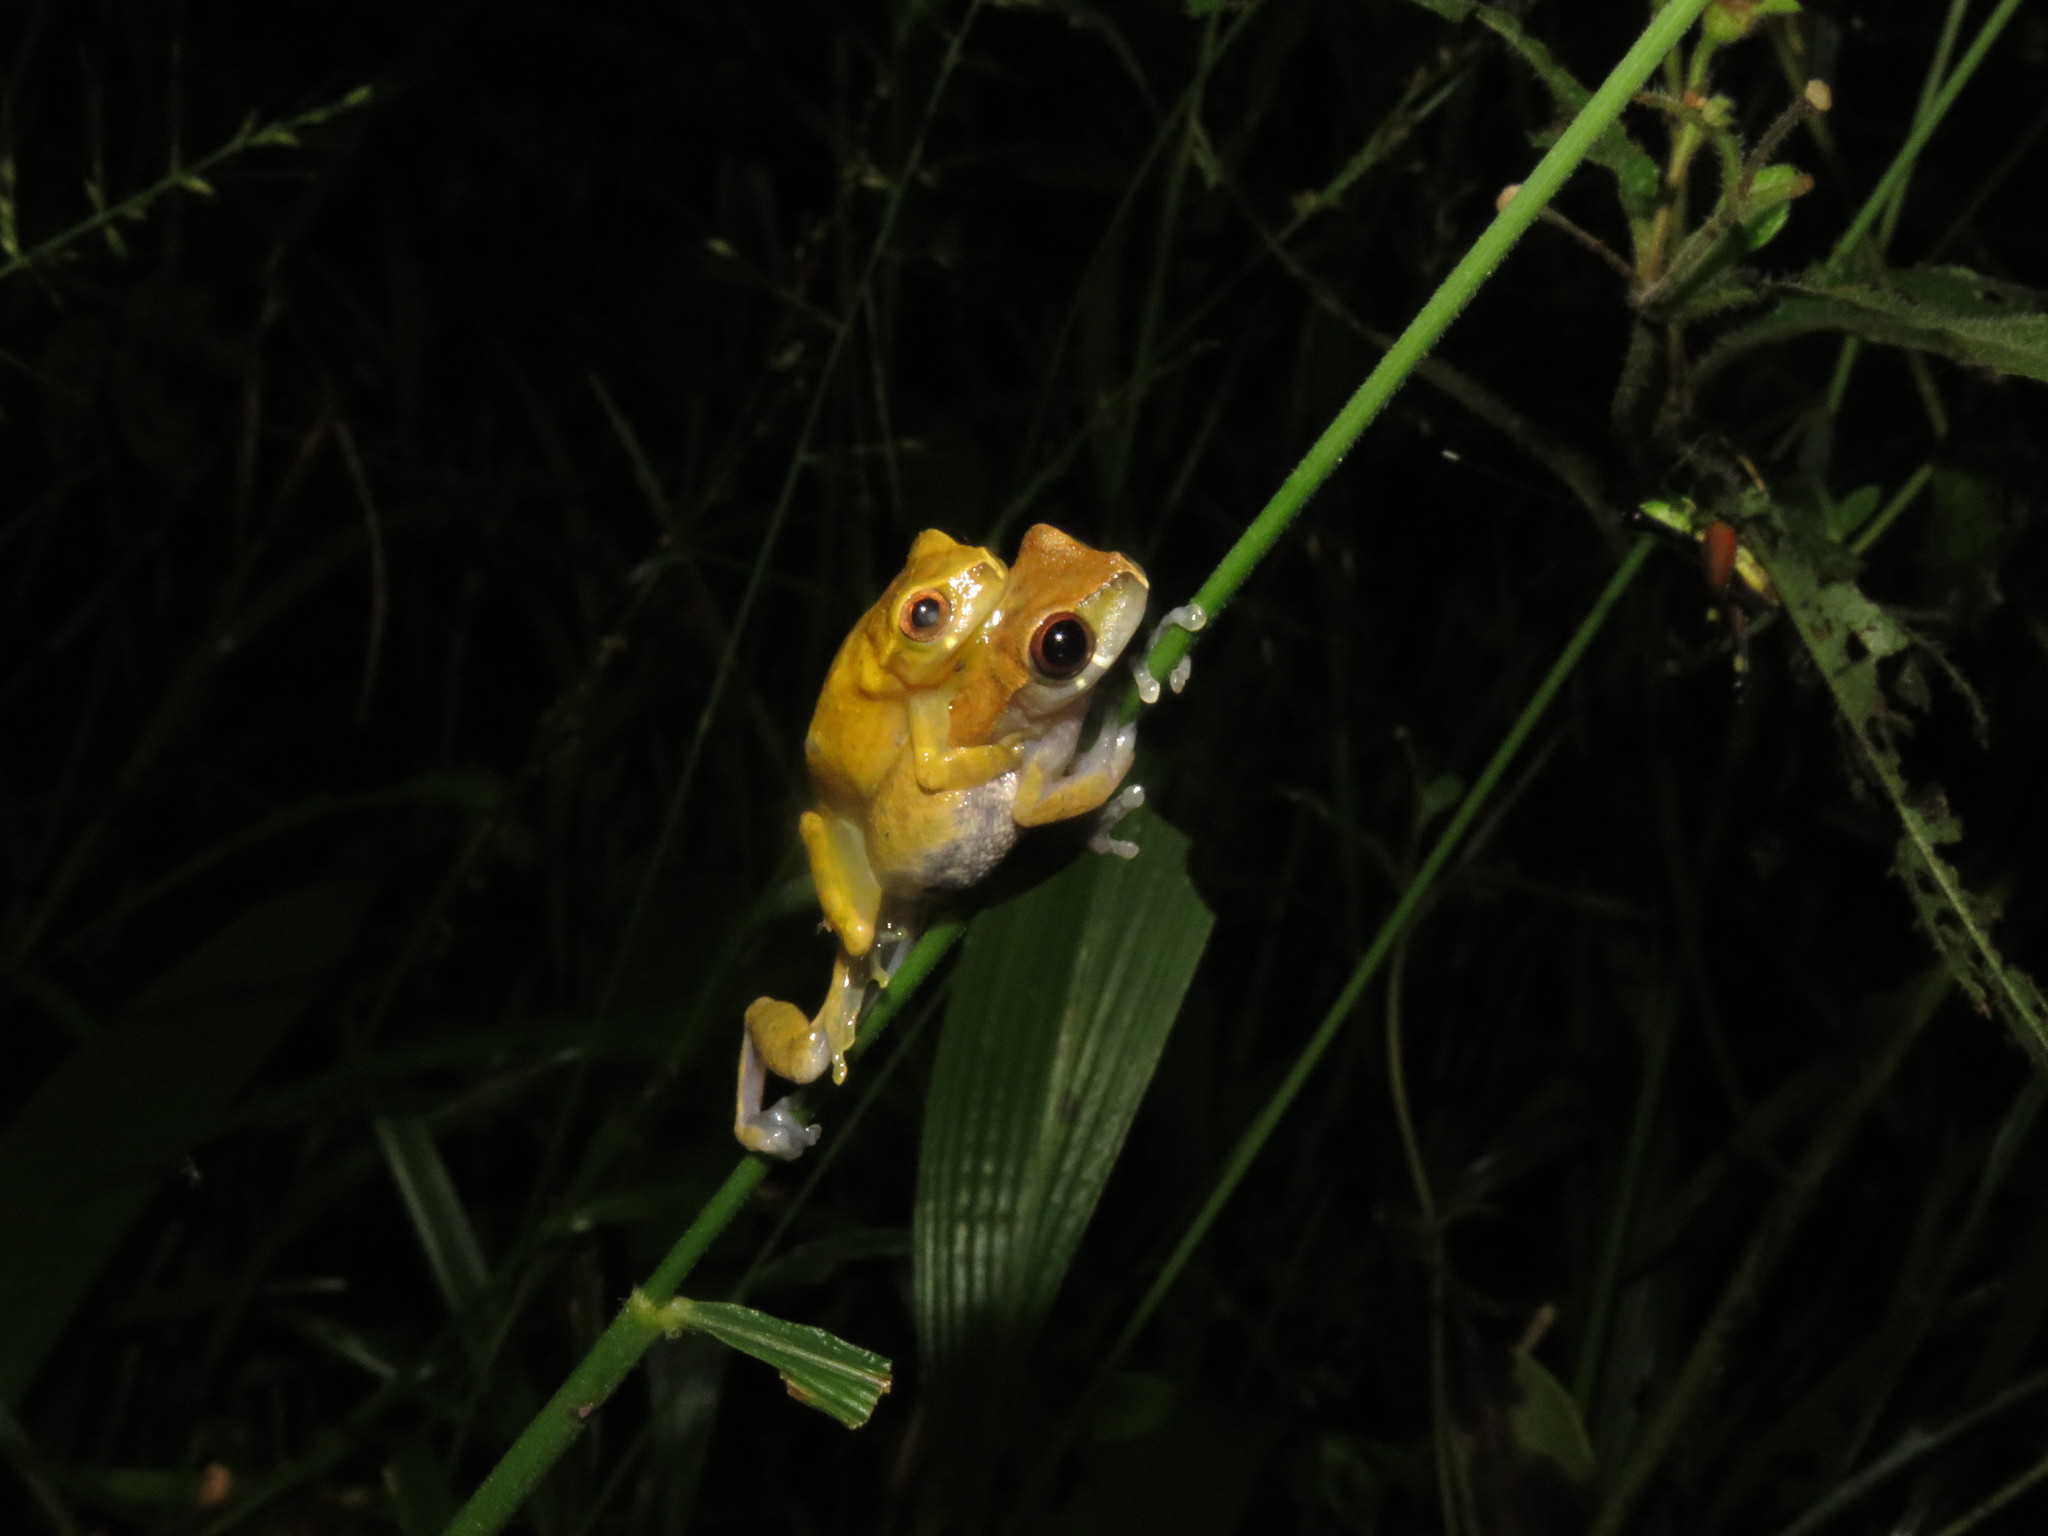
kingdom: Animalia
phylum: Chordata
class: Amphibia
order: Anura
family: Hylidae
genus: Dendropsophus
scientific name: Dendropsophus pauiniensis
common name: Pauini treefrog
